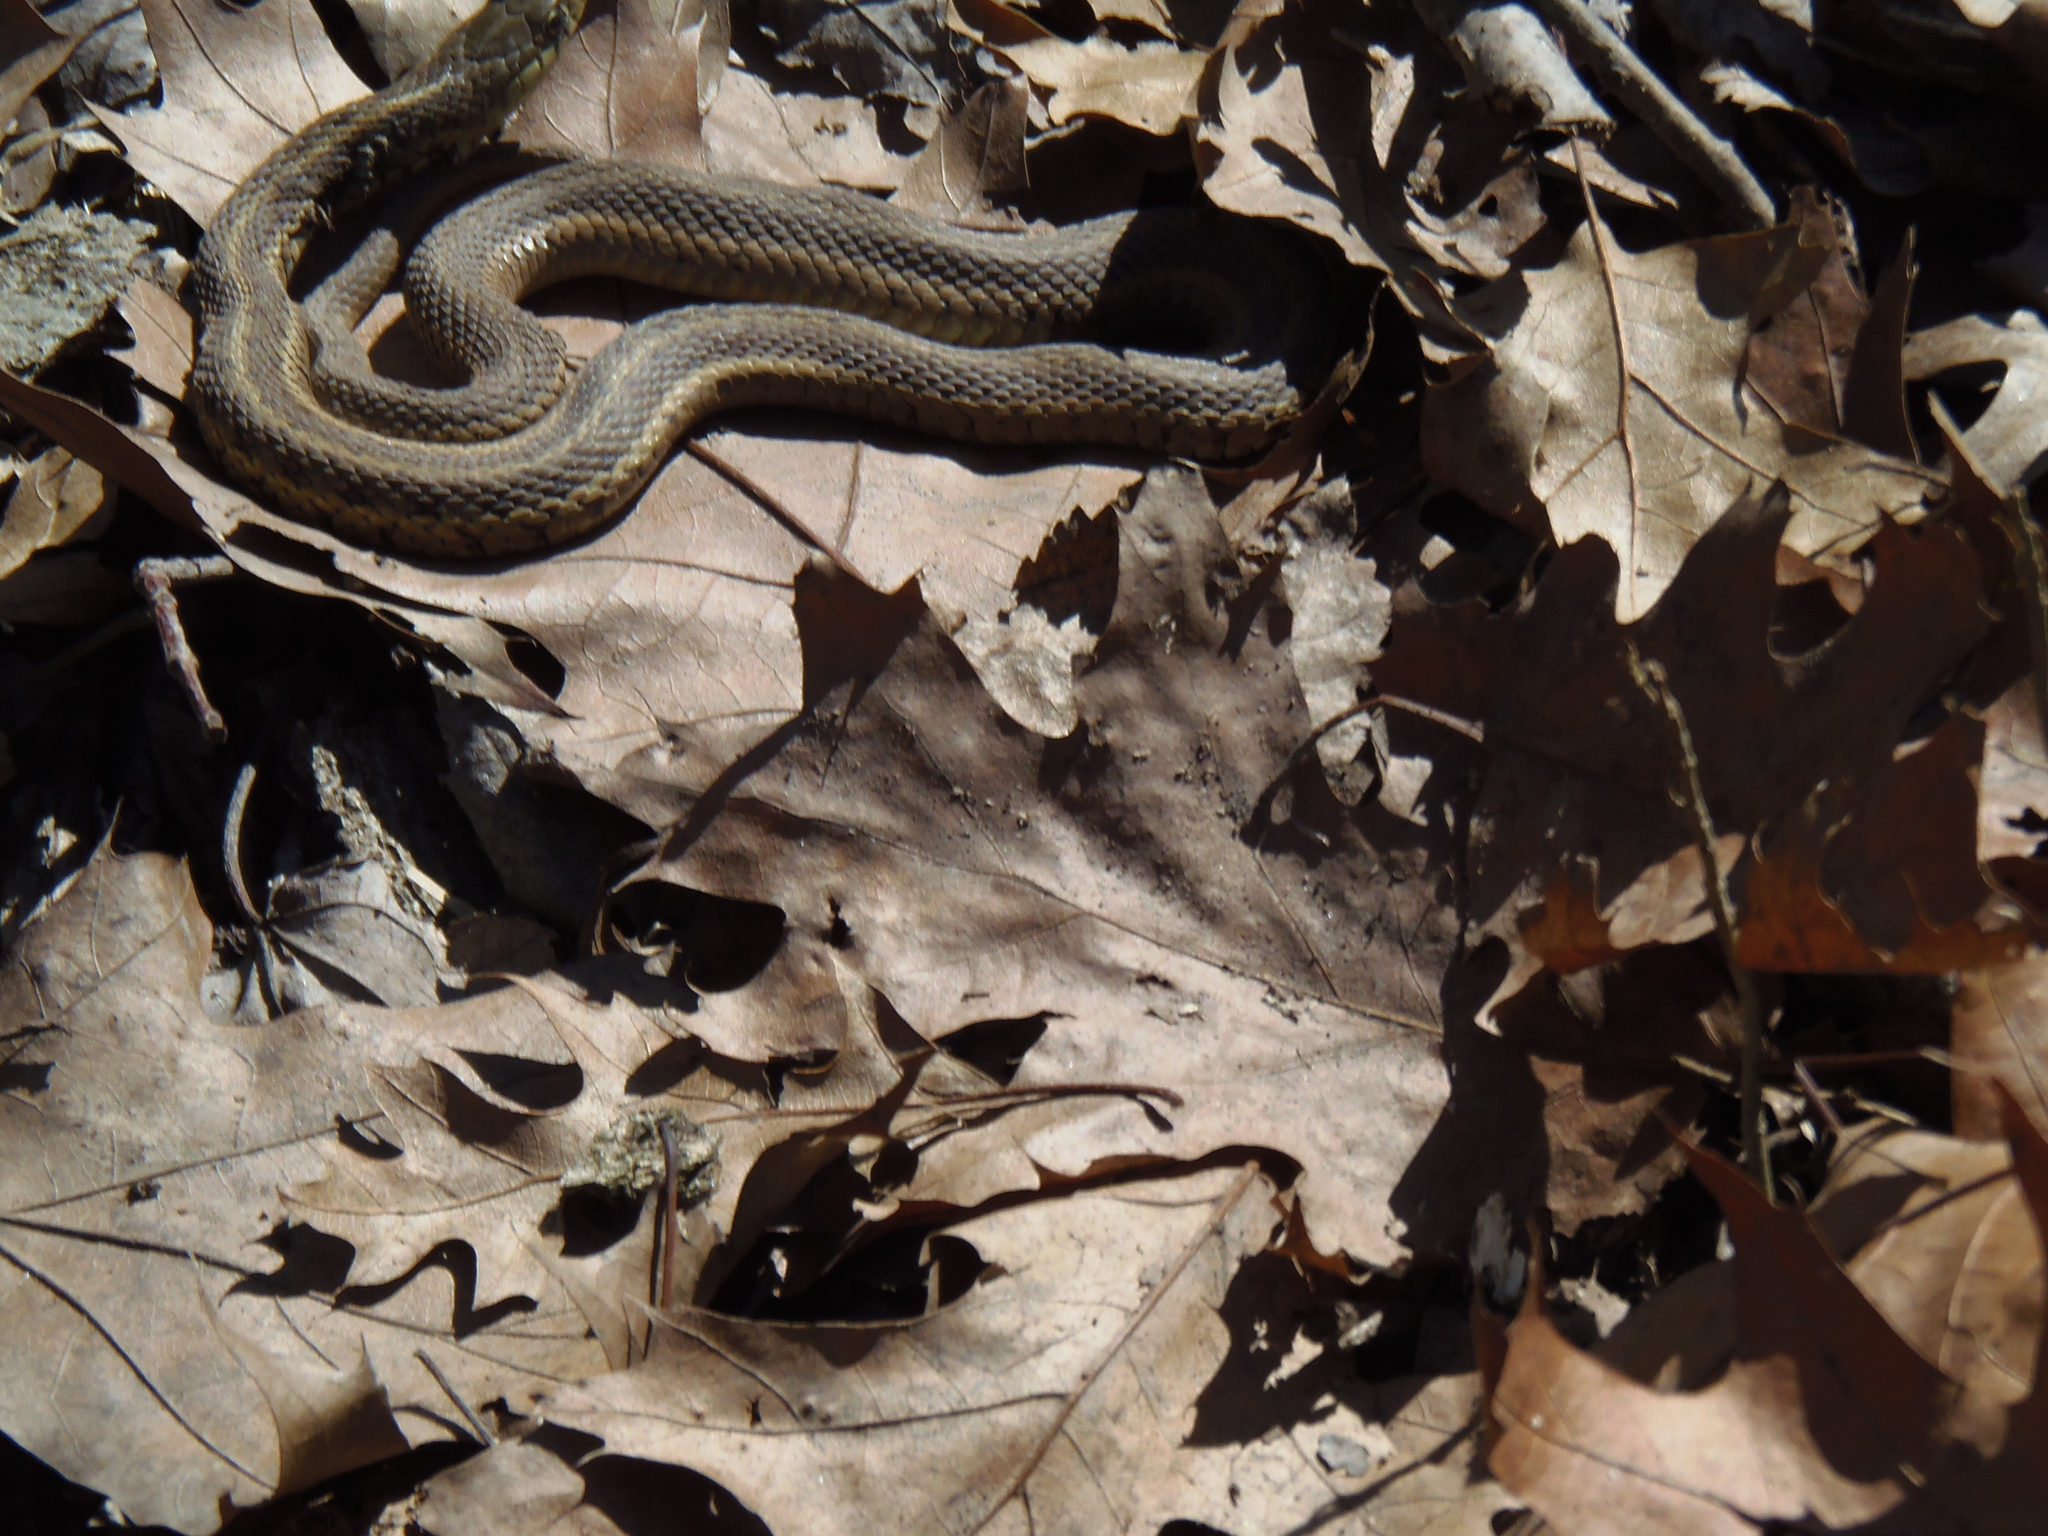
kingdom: Animalia
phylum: Chordata
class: Squamata
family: Colubridae
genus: Thamnophis
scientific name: Thamnophis sirtalis
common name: Common garter snake
